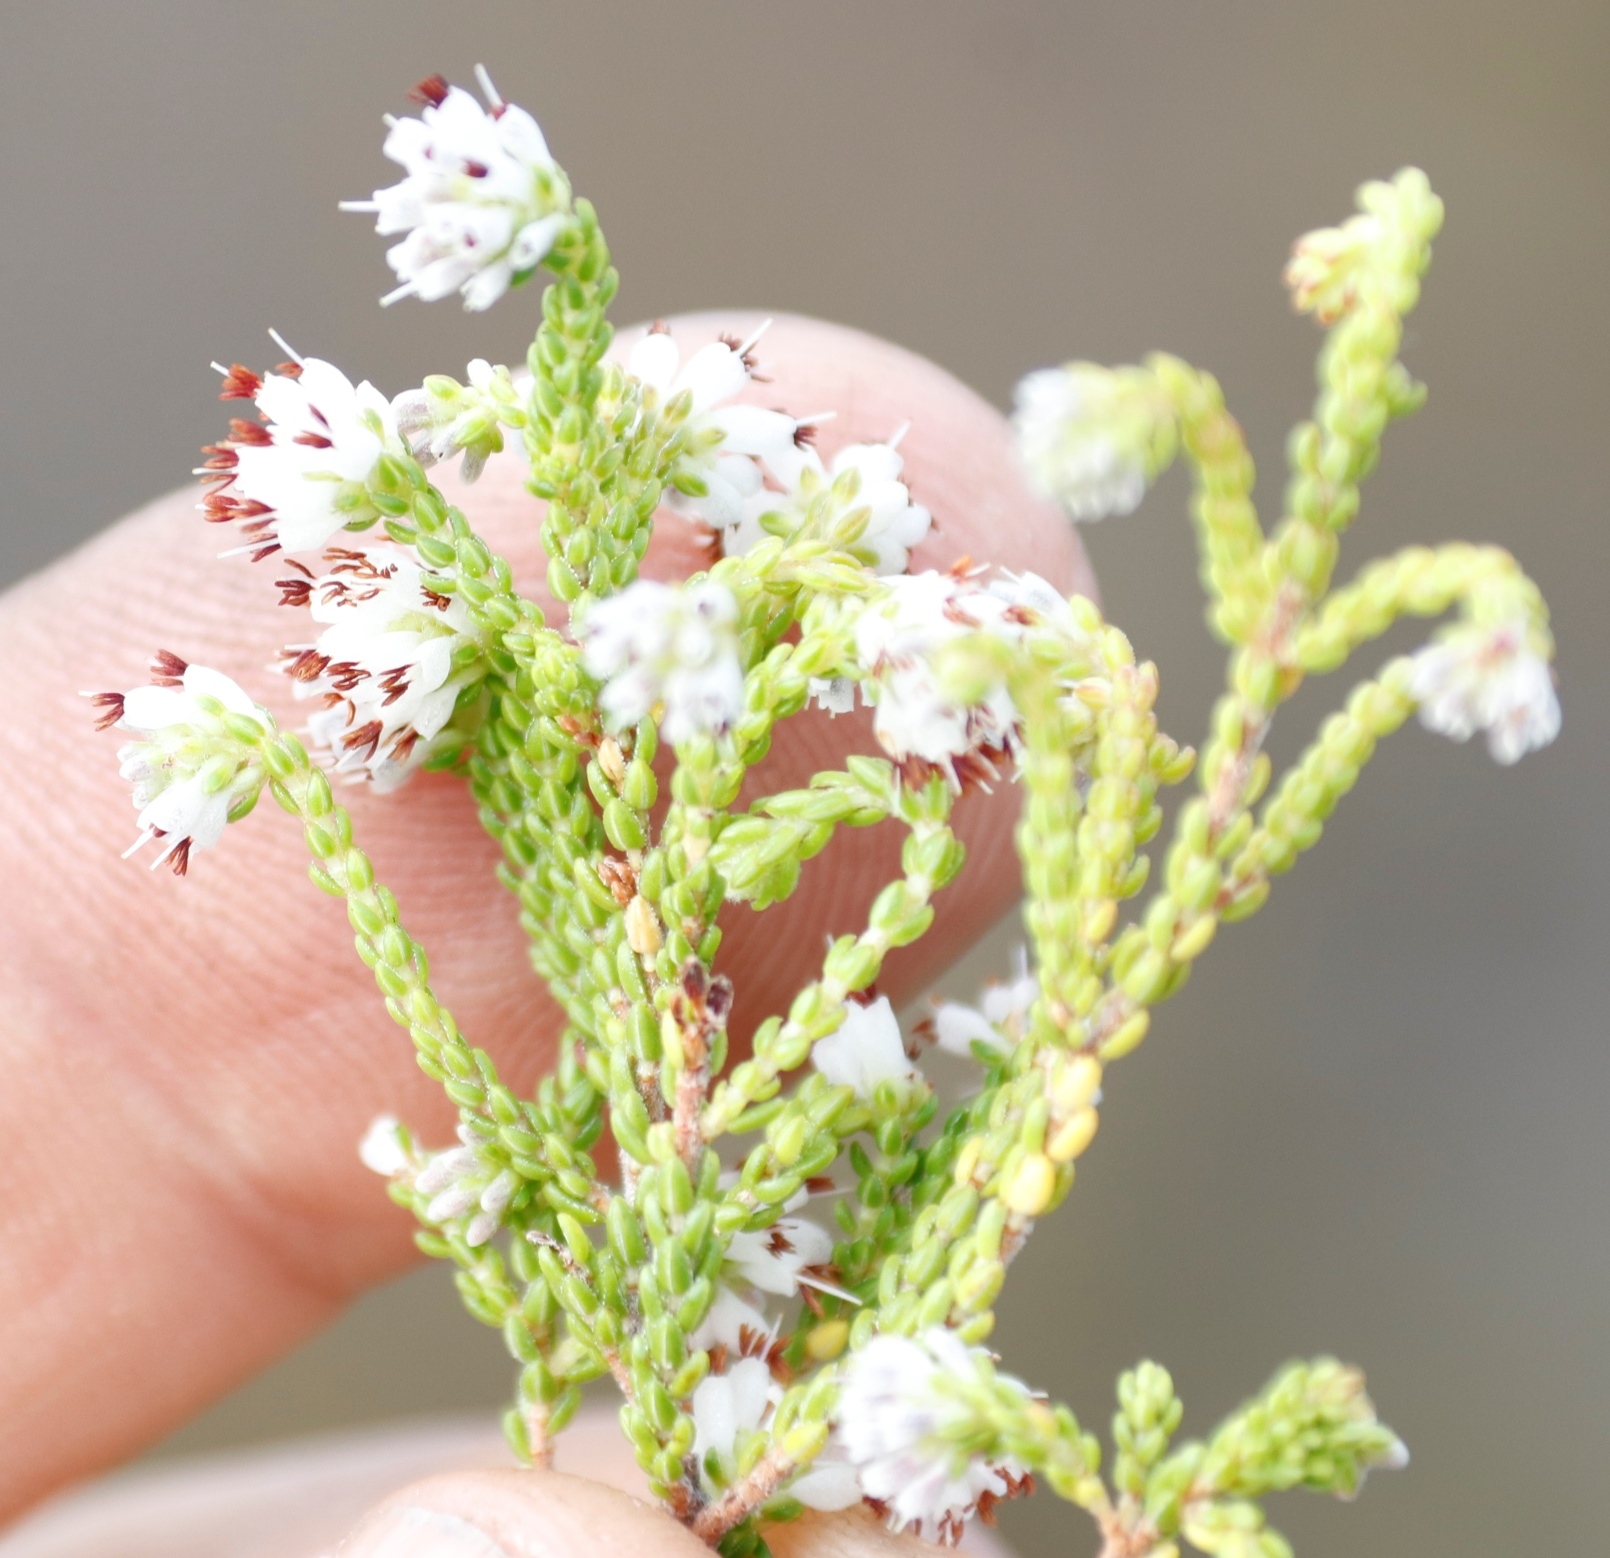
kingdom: Plantae
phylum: Tracheophyta
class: Magnoliopsida
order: Ericales
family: Ericaceae
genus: Erica
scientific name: Erica labialis
